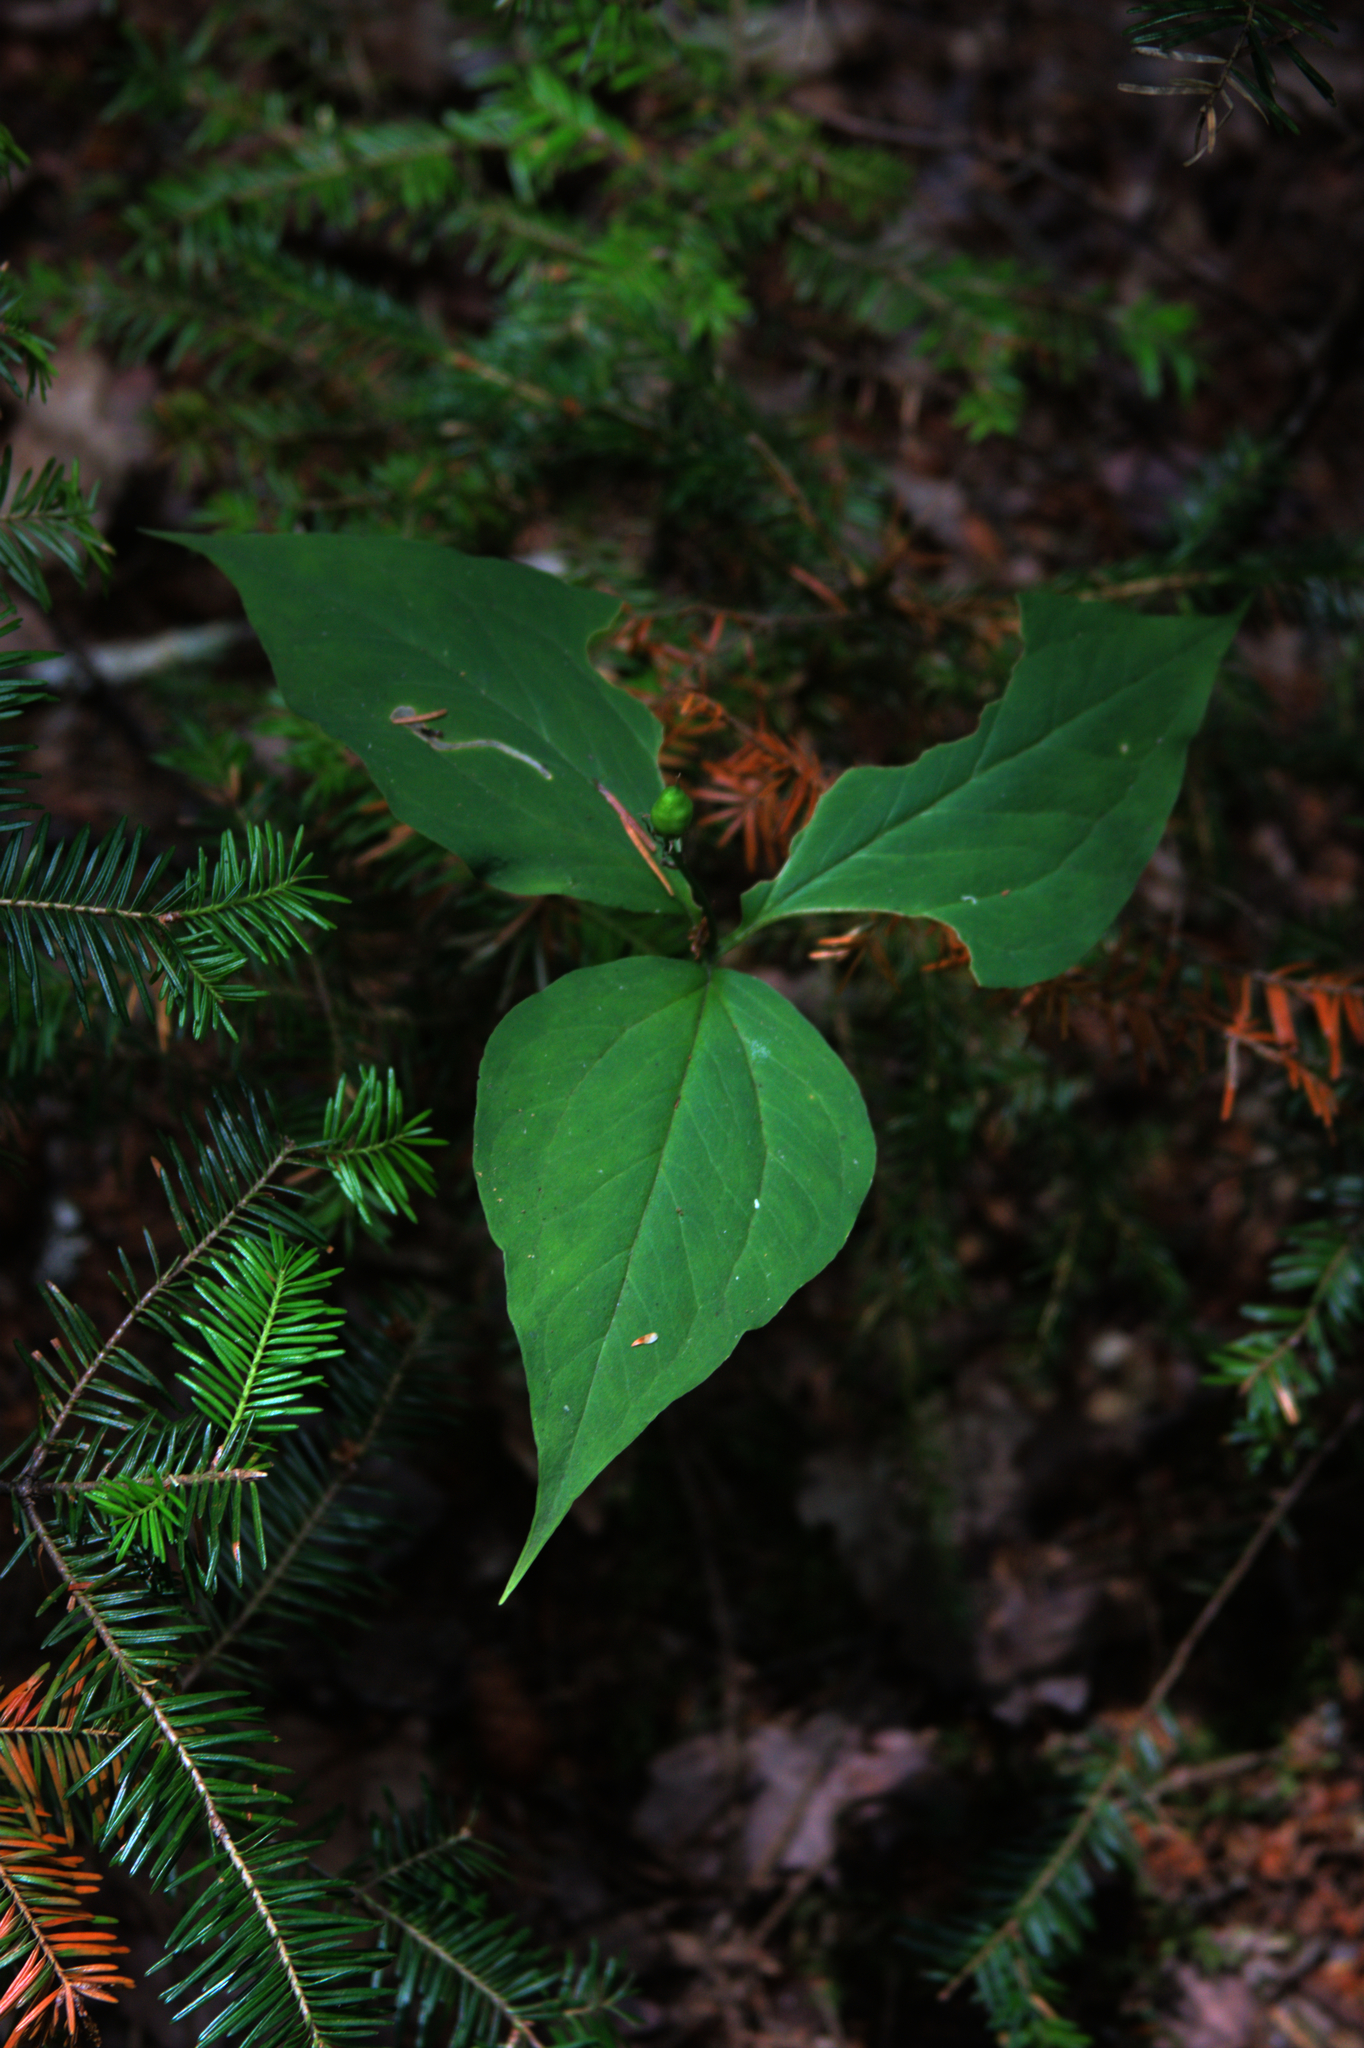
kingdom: Plantae
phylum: Tracheophyta
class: Liliopsida
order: Liliales
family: Melanthiaceae
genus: Trillium
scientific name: Trillium undulatum
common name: Paint trillium
